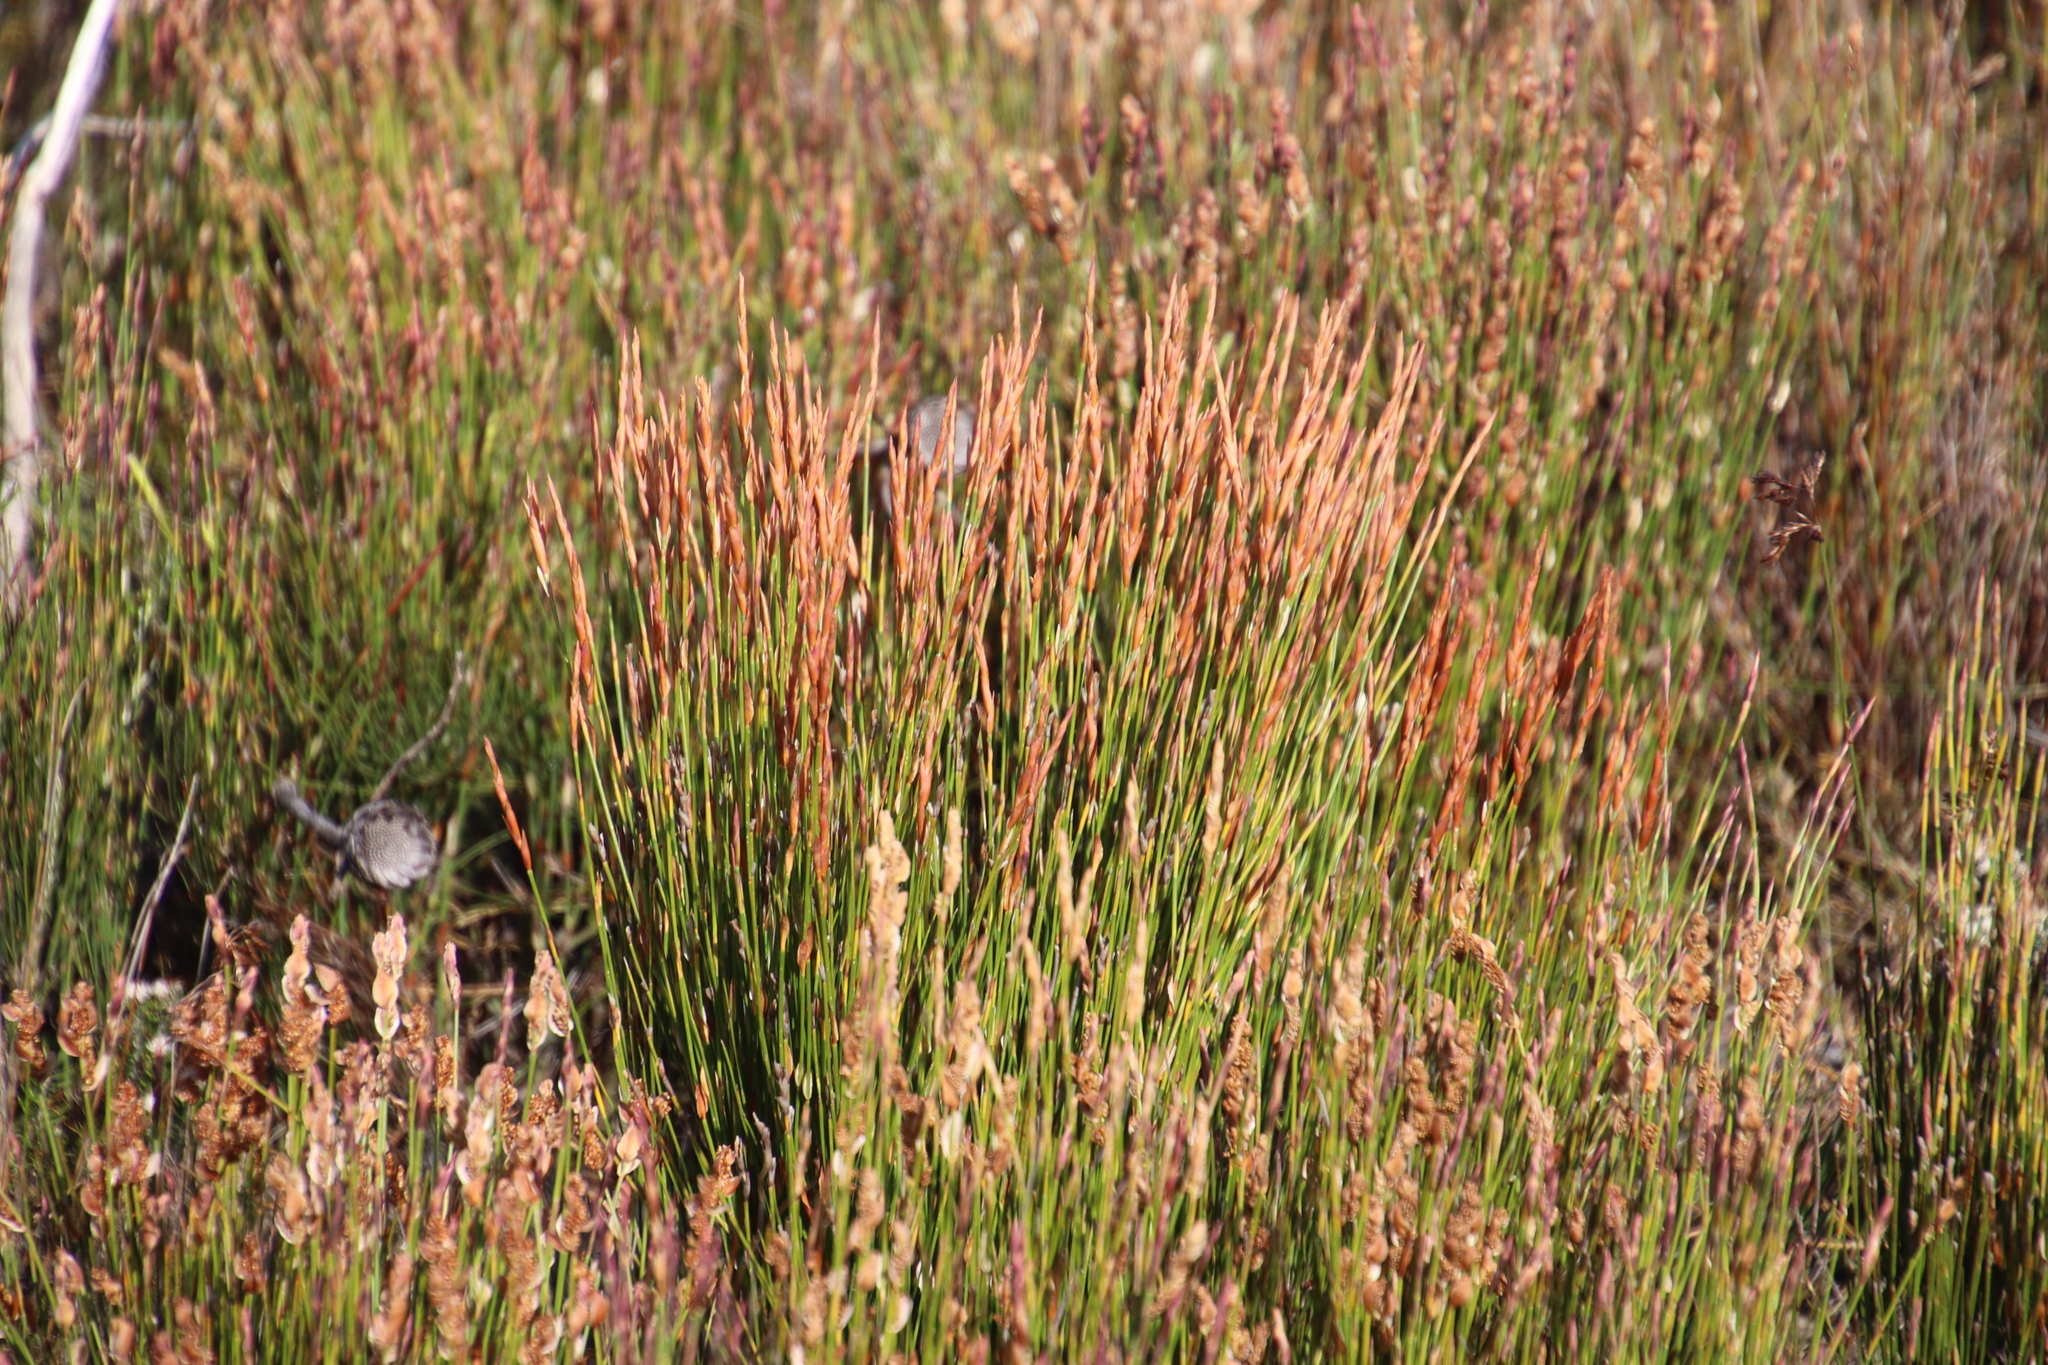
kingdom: Plantae
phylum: Tracheophyta
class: Liliopsida
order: Poales
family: Restionaceae
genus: Elegia
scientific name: Elegia stipularis
